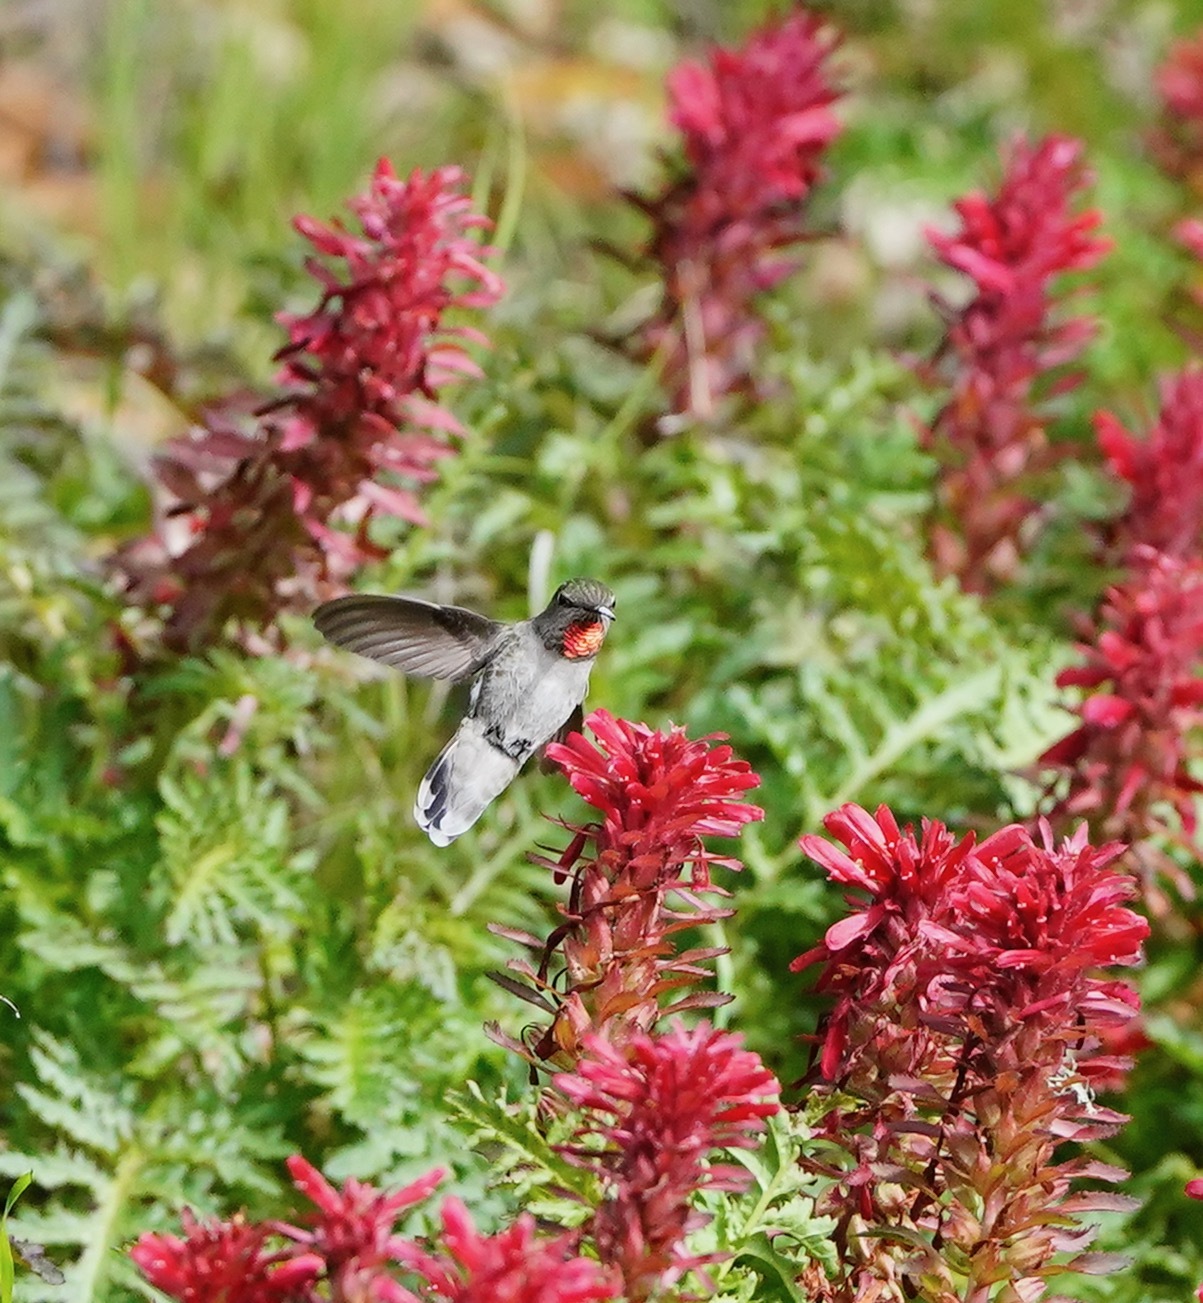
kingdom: Animalia
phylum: Chordata
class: Aves
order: Apodiformes
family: Trochilidae
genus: Calypte
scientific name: Calypte anna
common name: Anna's hummingbird
